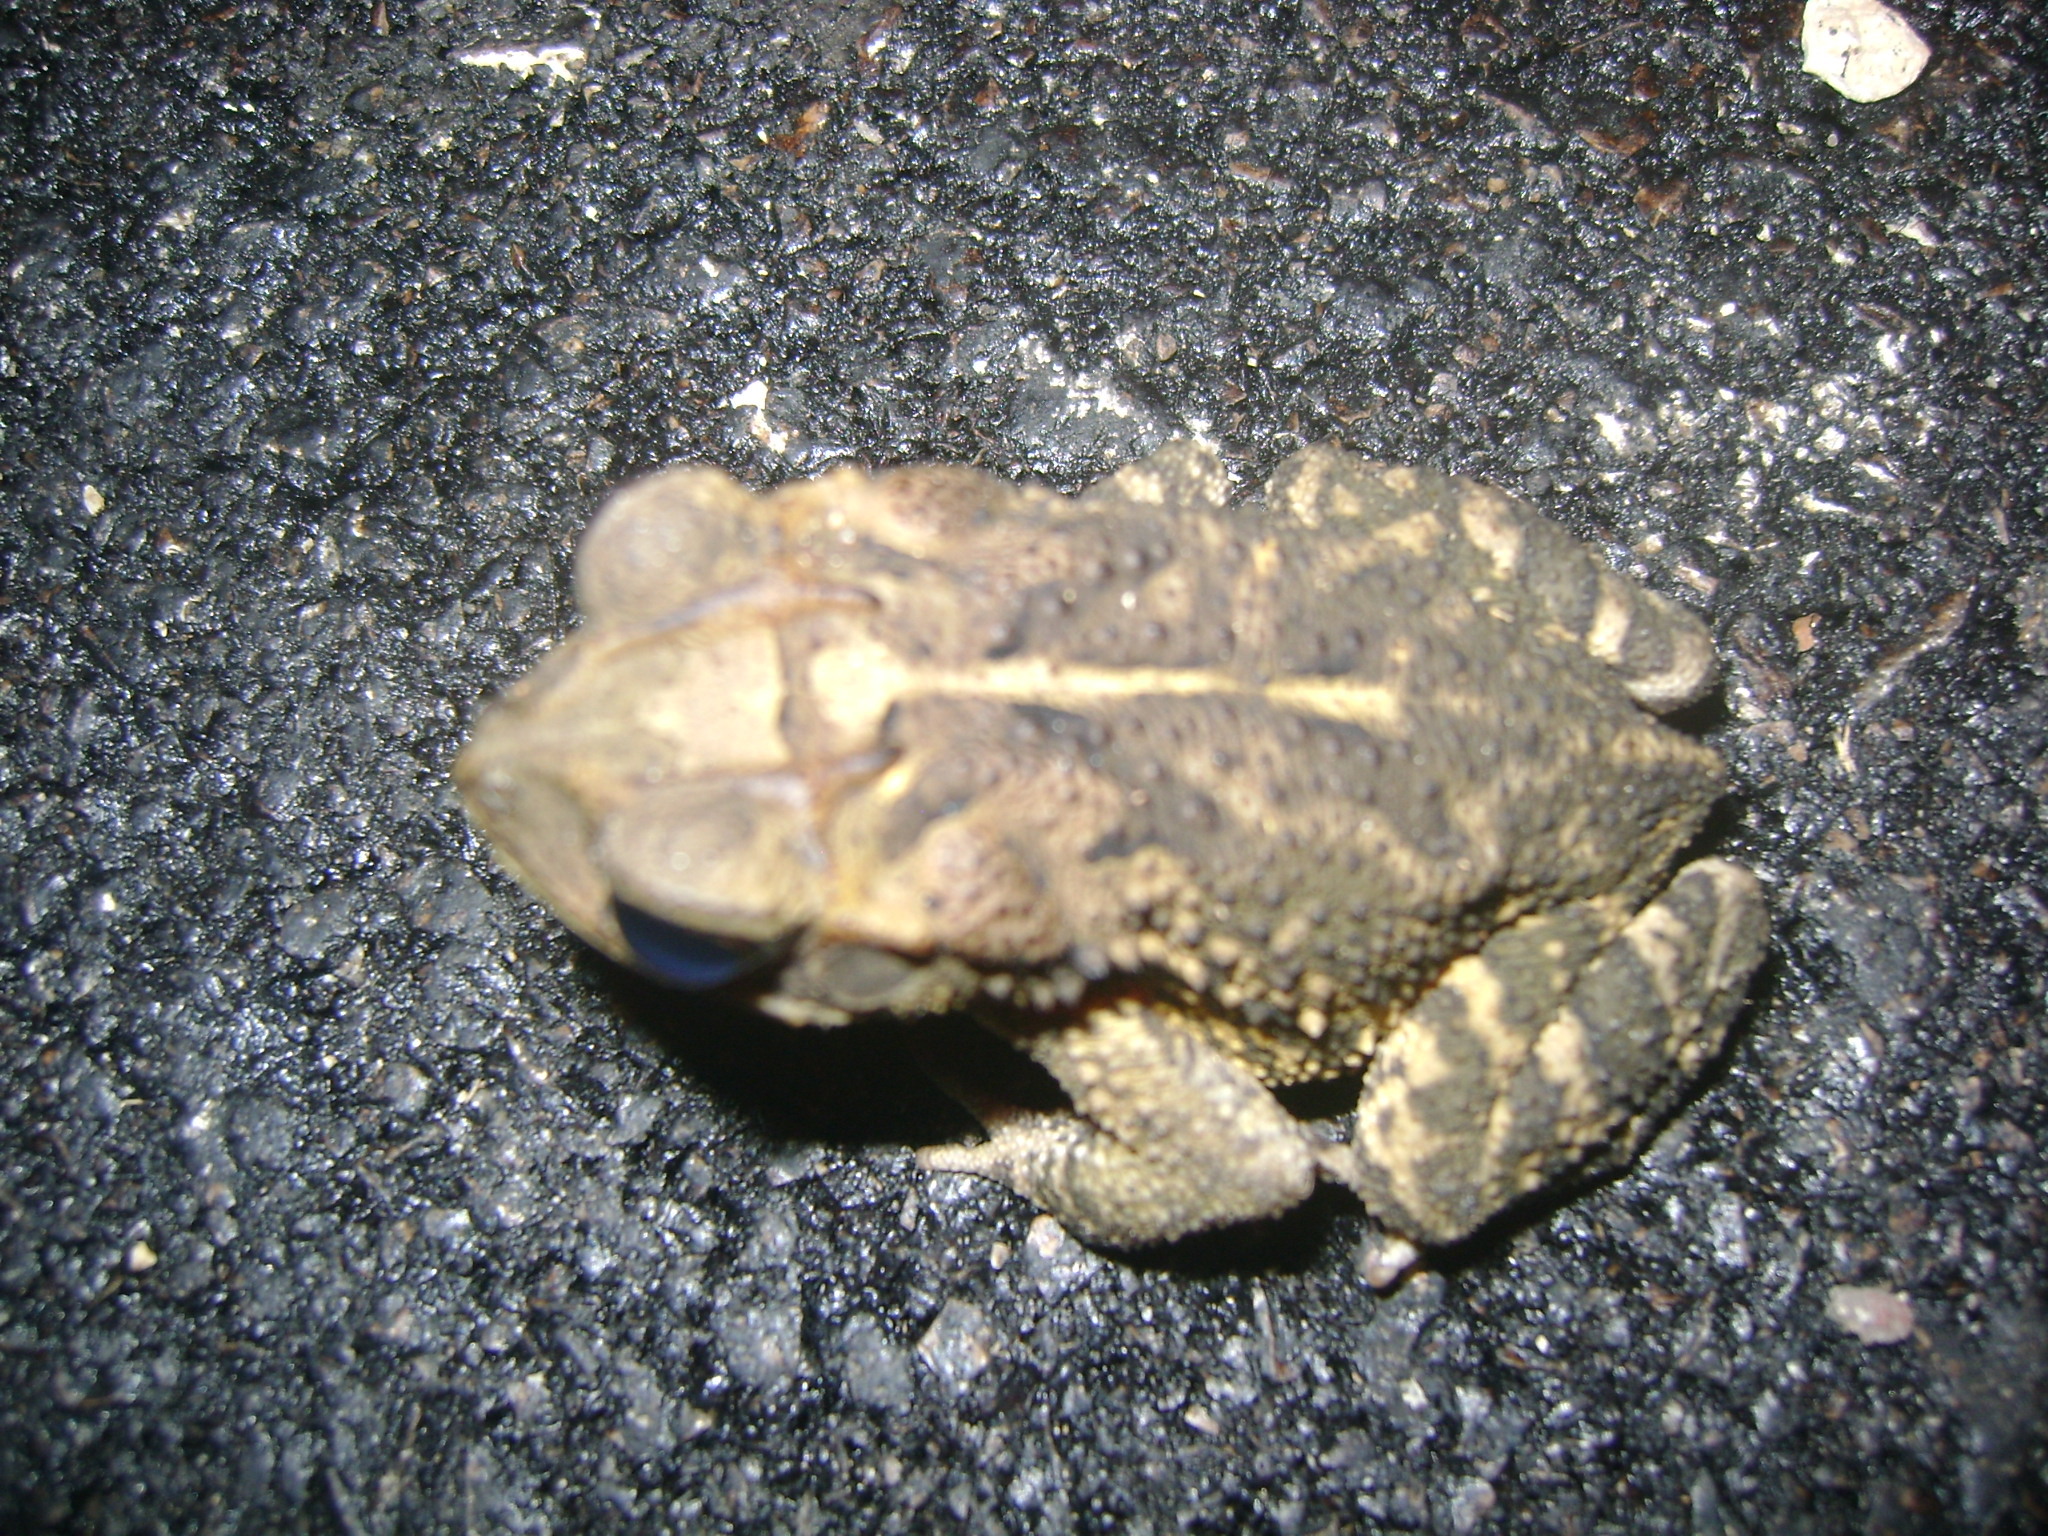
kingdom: Animalia
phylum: Chordata
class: Amphibia
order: Anura
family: Bufonidae
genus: Incilius
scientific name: Incilius valliceps
